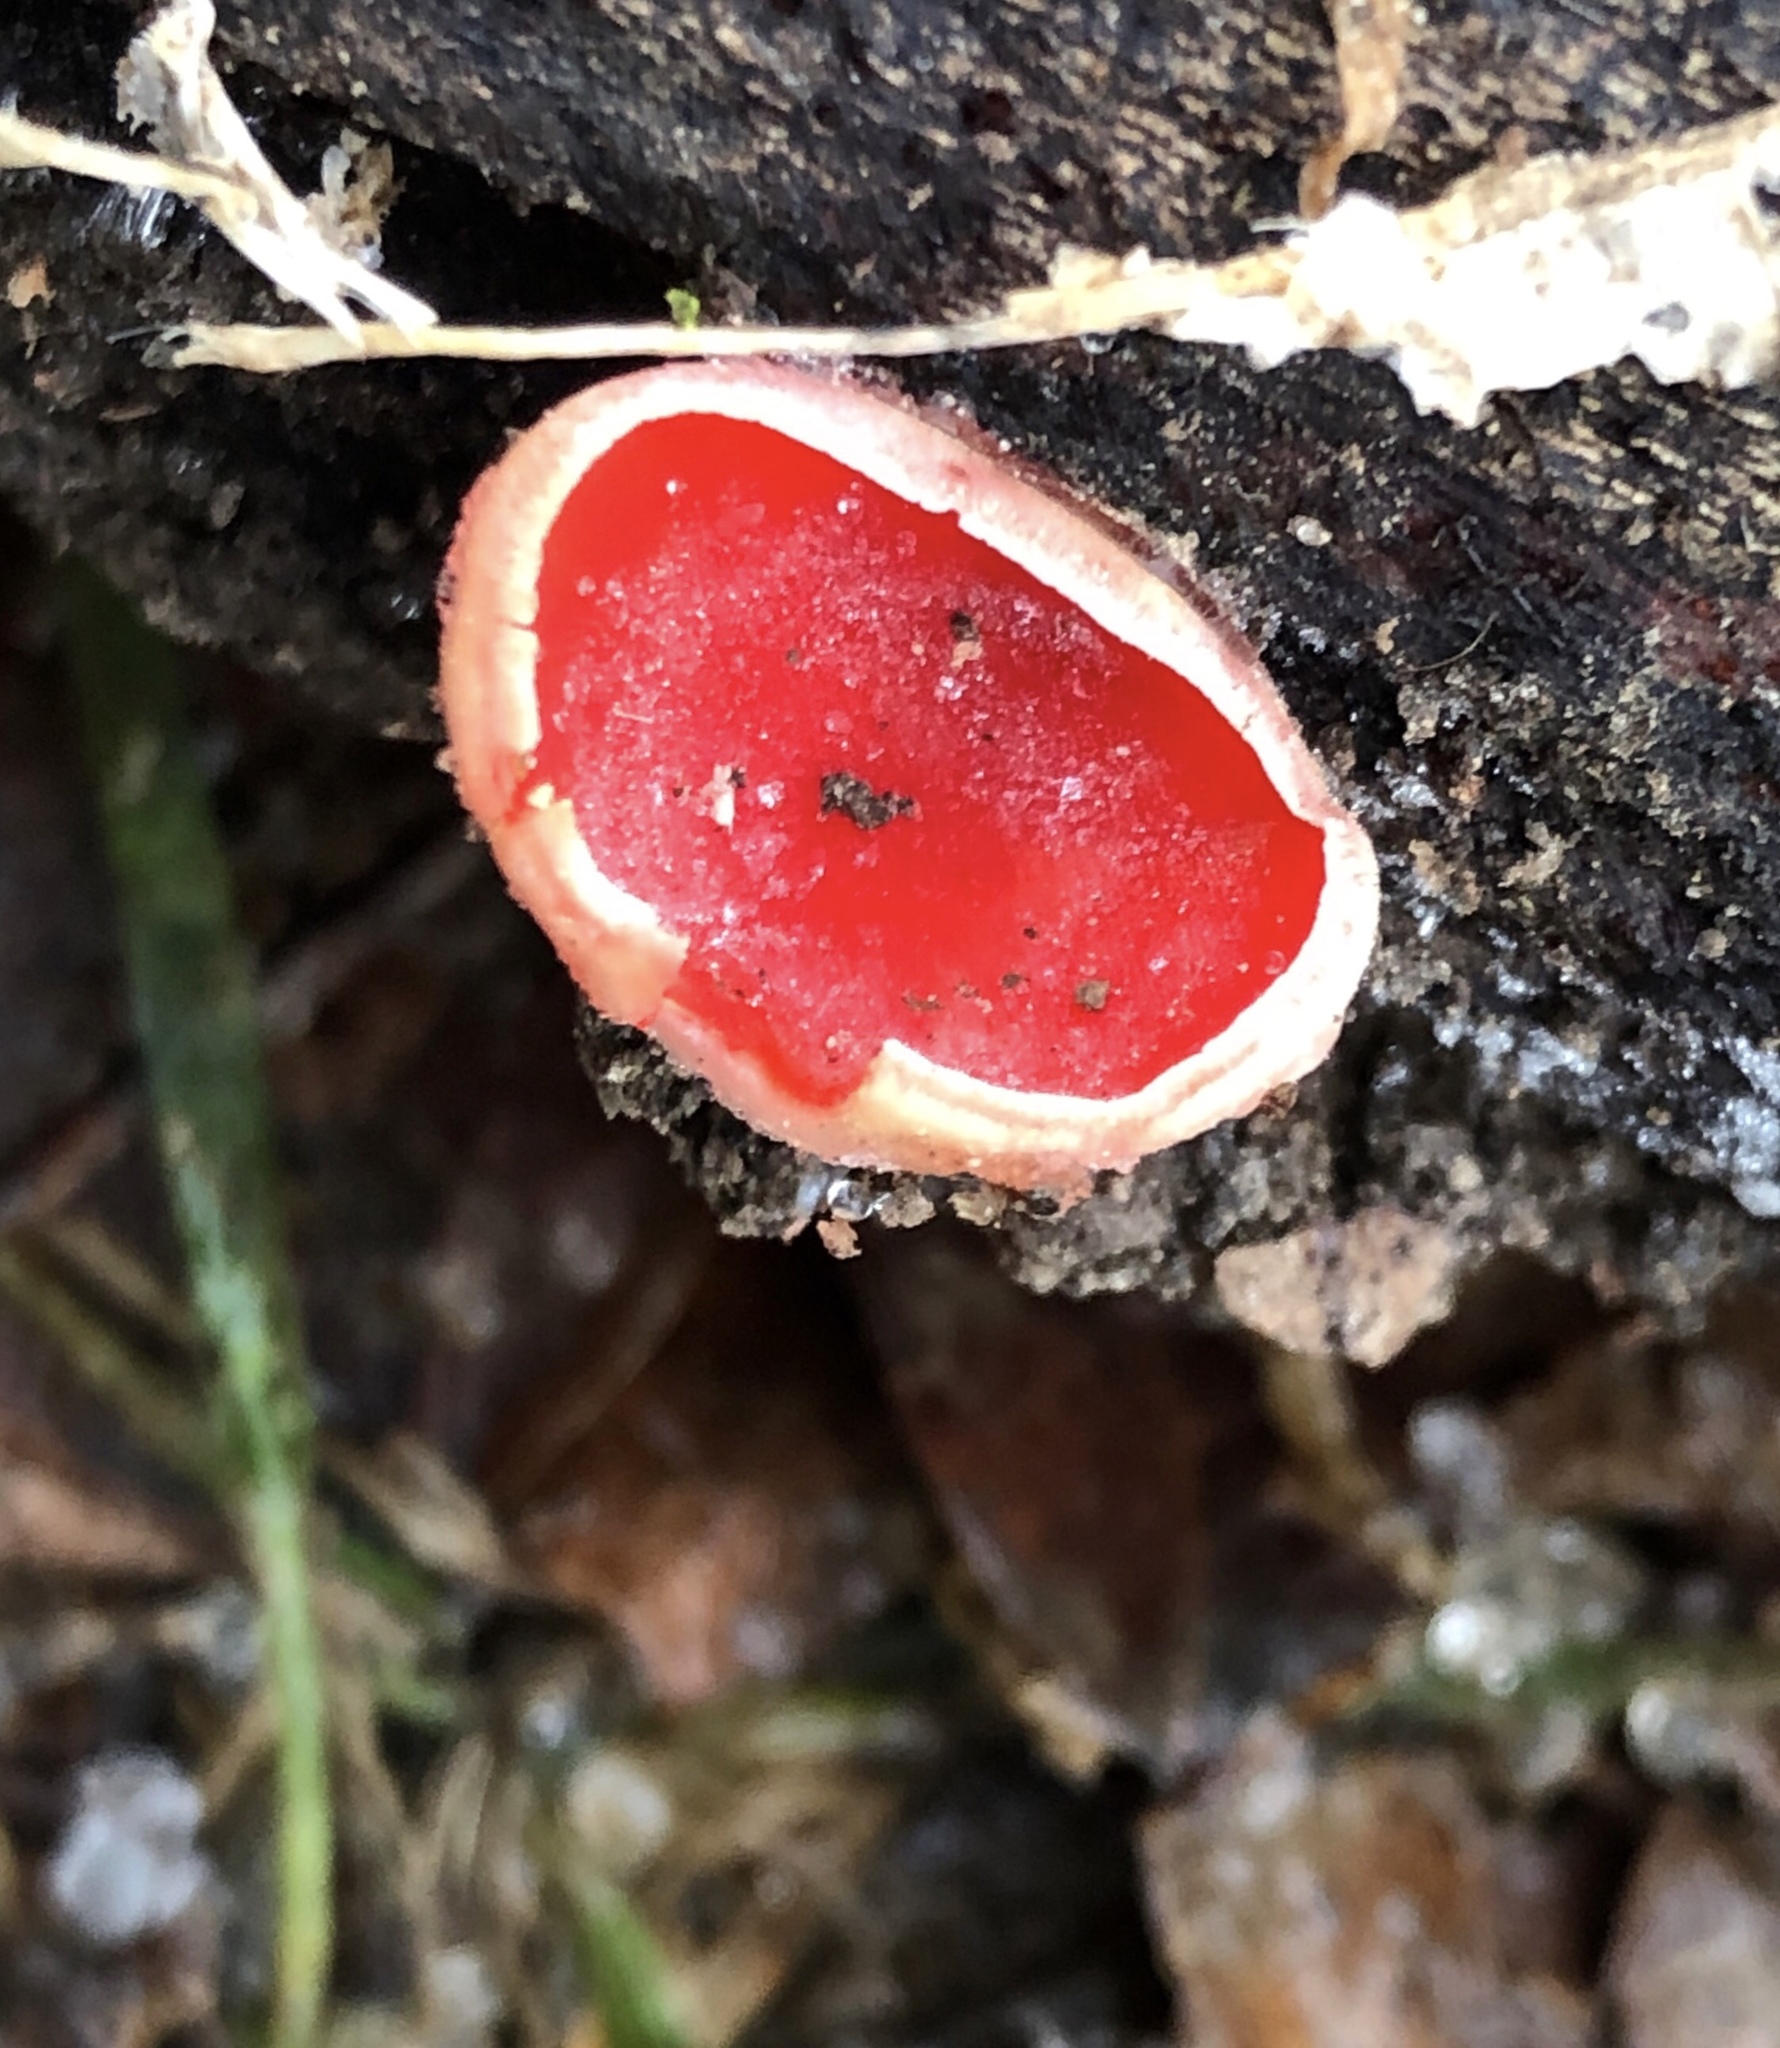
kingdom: Fungi
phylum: Ascomycota
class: Pezizomycetes
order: Pezizales
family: Sarcoscyphaceae
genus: Sarcoscypha
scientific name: Sarcoscypha austriaca
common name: Scarlet elfcup
